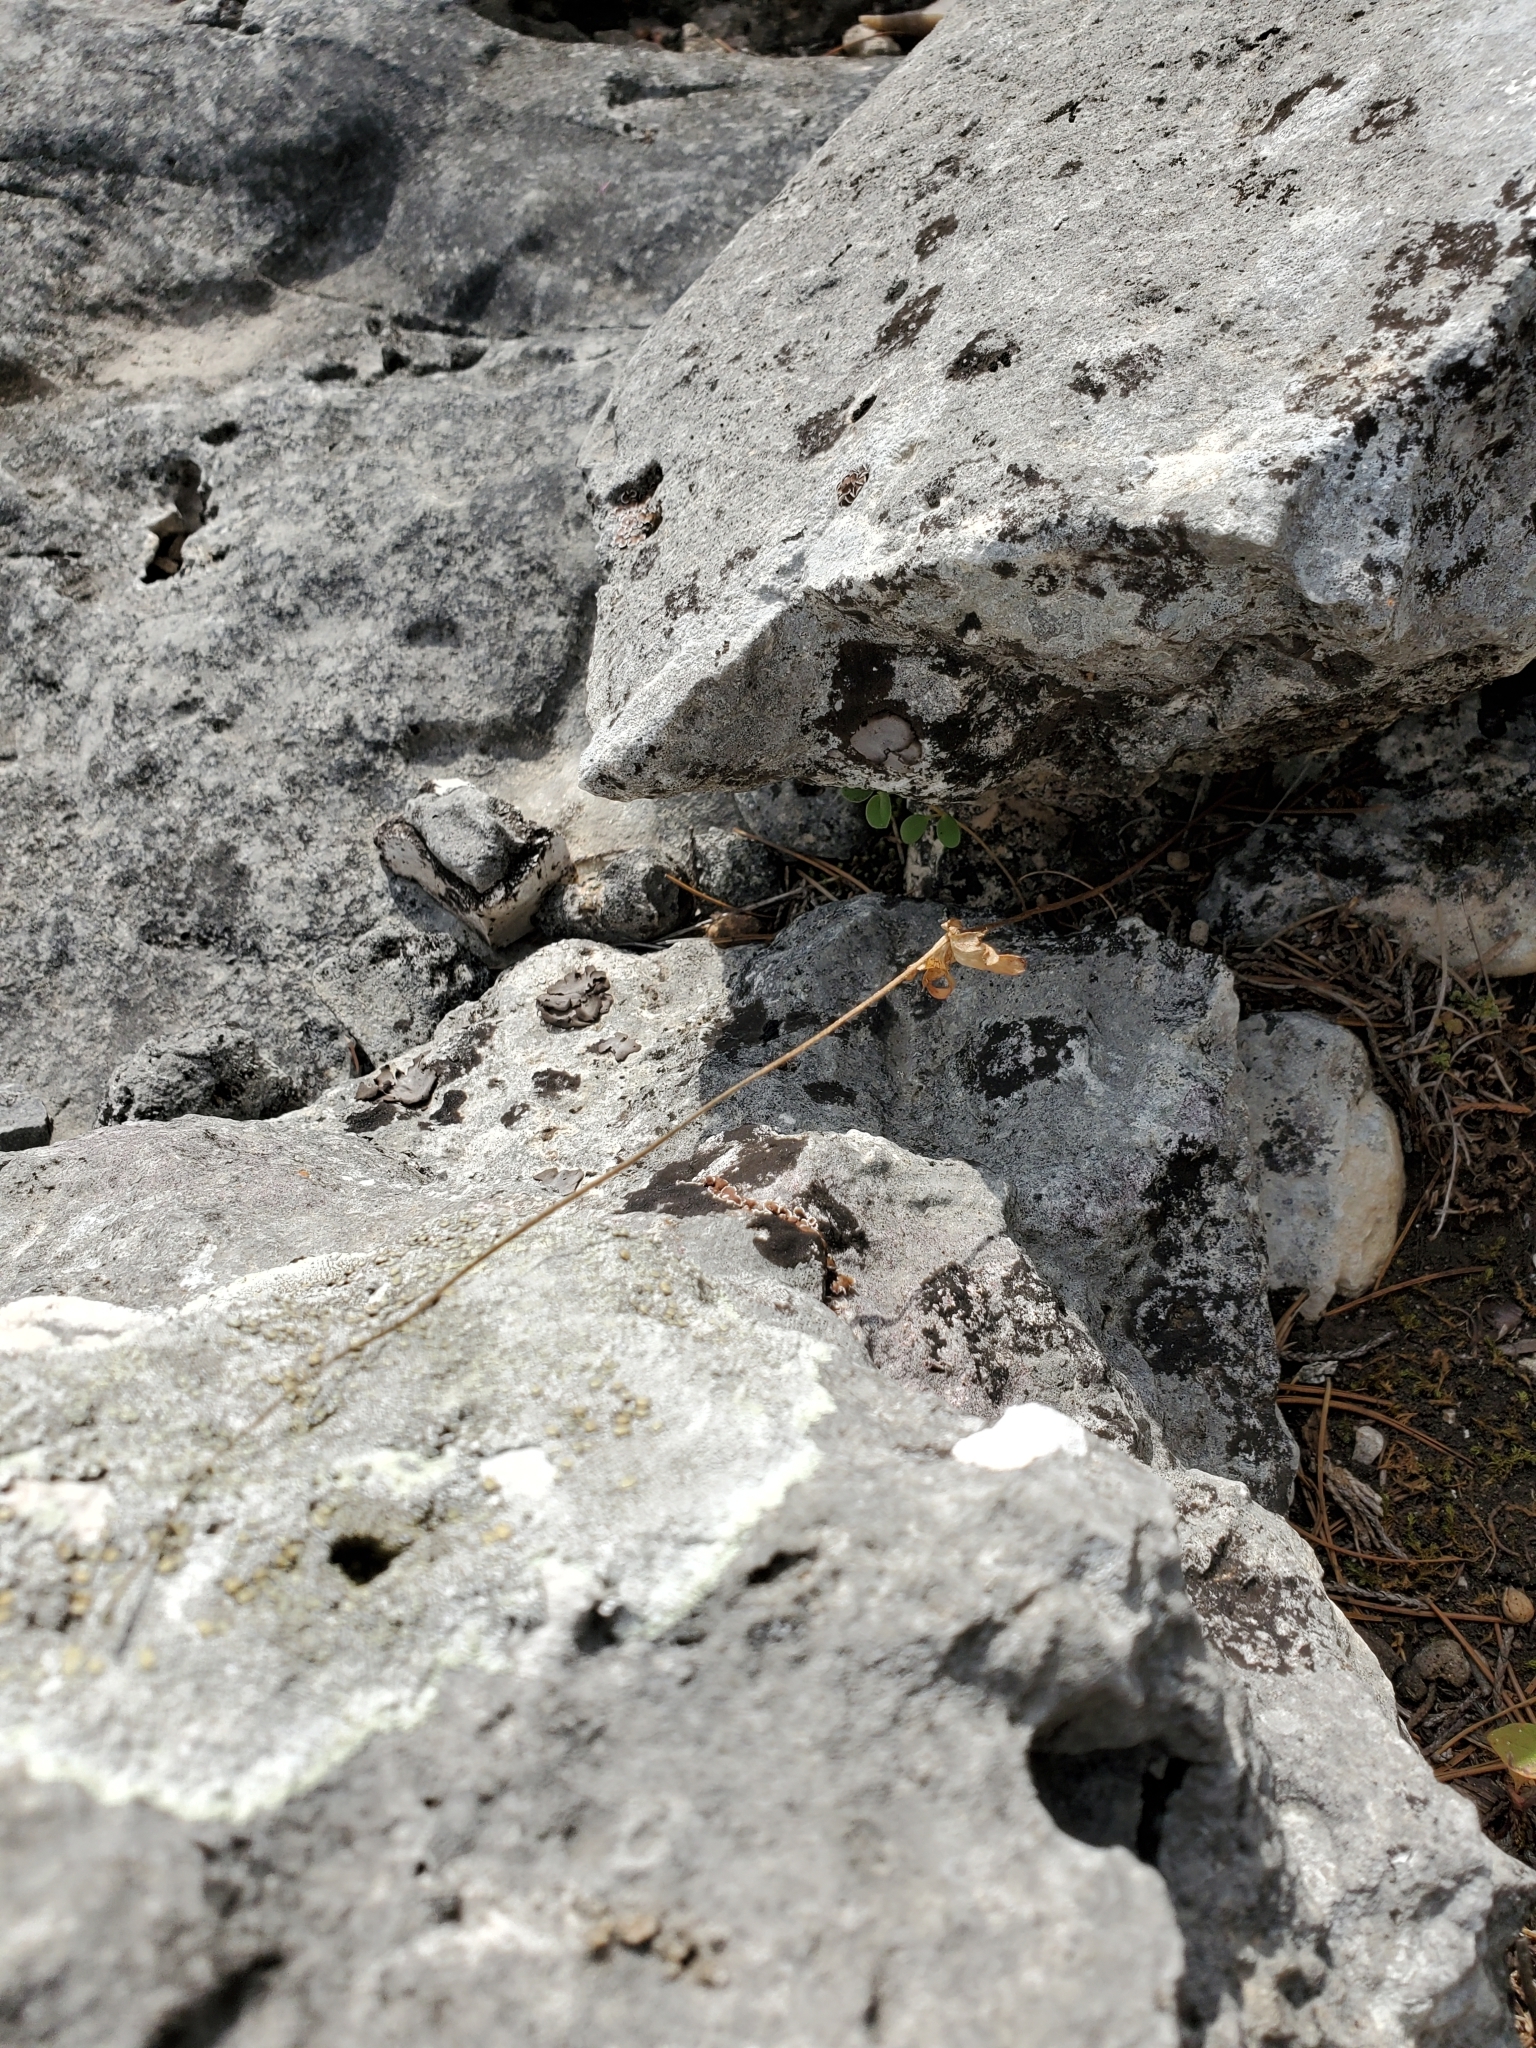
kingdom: Plantae
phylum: Tracheophyta
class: Magnoliopsida
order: Ranunculales
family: Ranunculaceae
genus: Anemone
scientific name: Anemone edwardsiana
